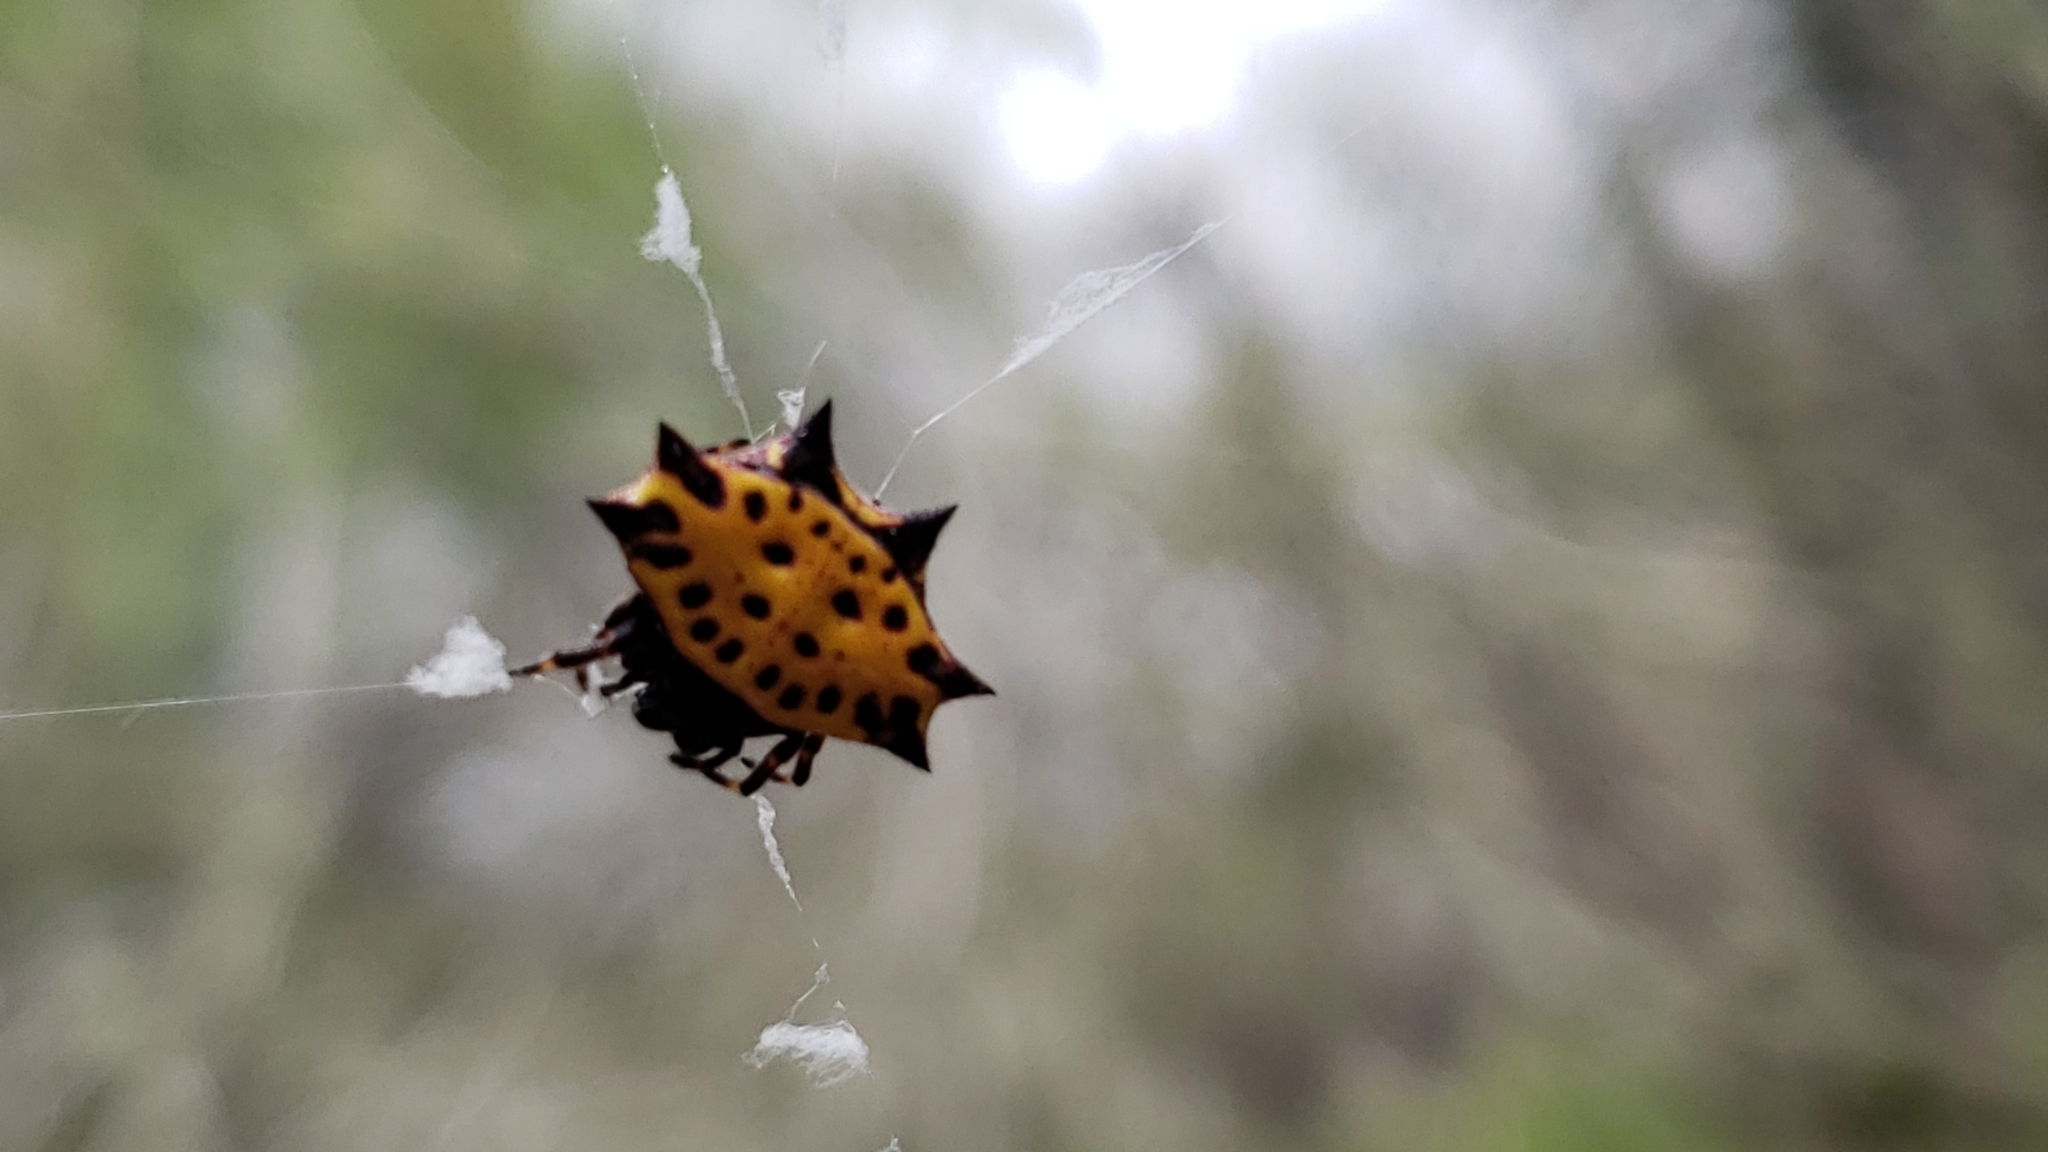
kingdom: Animalia
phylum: Arthropoda
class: Arachnida
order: Araneae
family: Araneidae
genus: Gasteracantha
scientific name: Gasteracantha cancriformis
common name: Orb weavers
